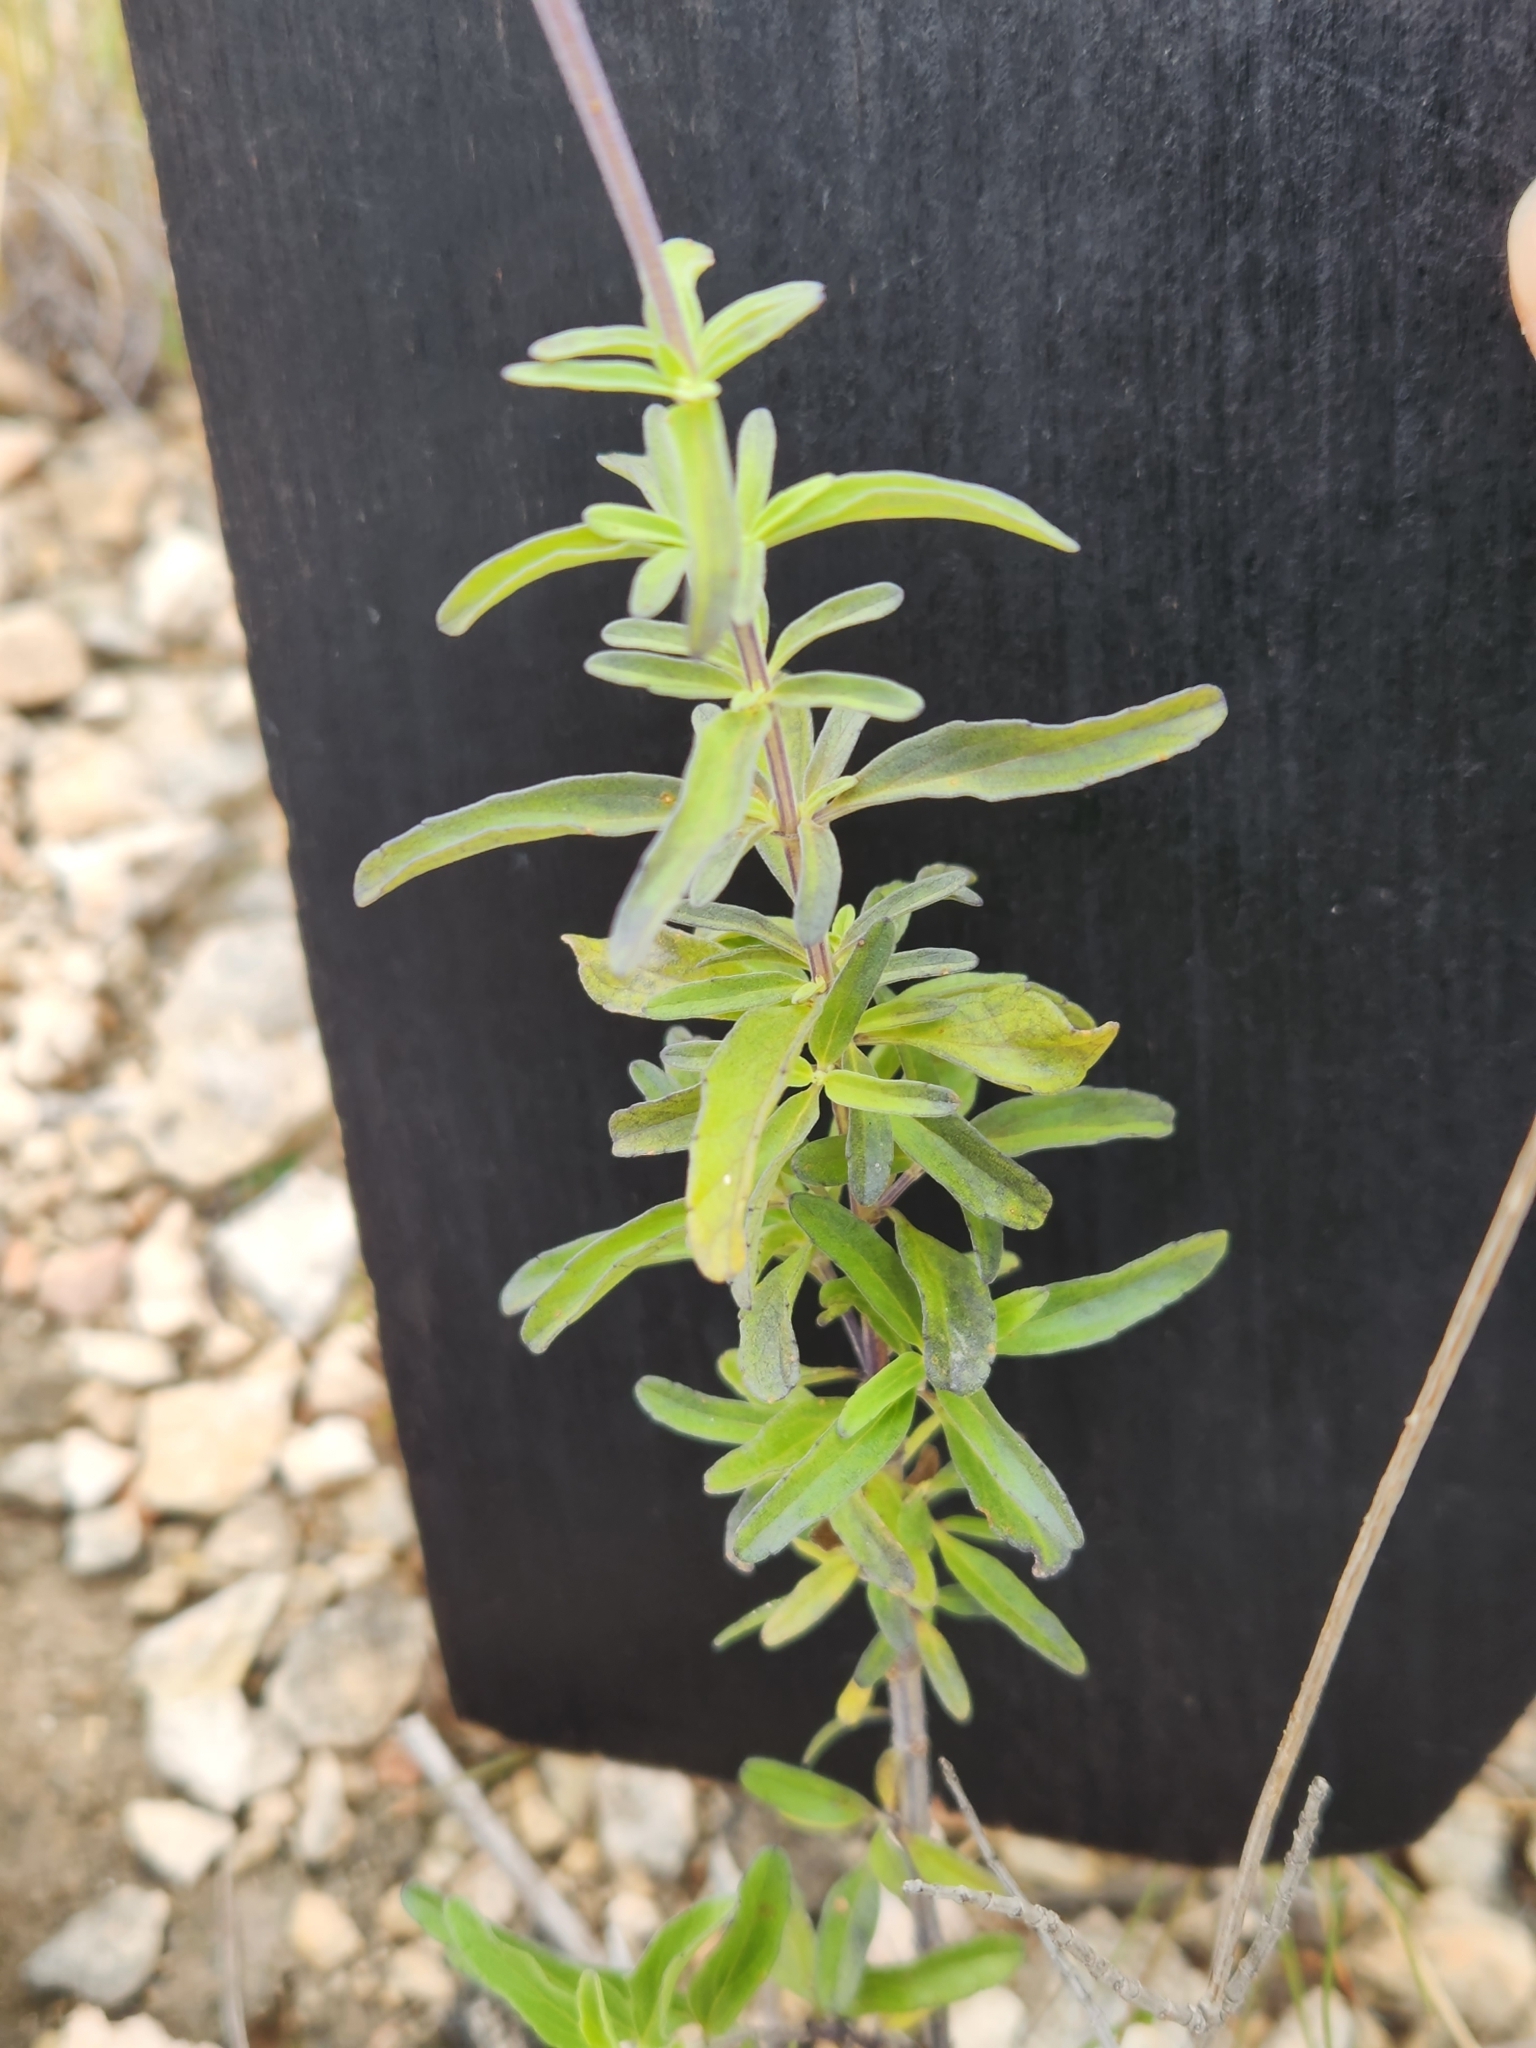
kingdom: Plantae
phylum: Tracheophyta
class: Magnoliopsida
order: Lamiales
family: Lamiaceae
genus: Salvia
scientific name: Salvia farinacea
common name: Mealy sage
